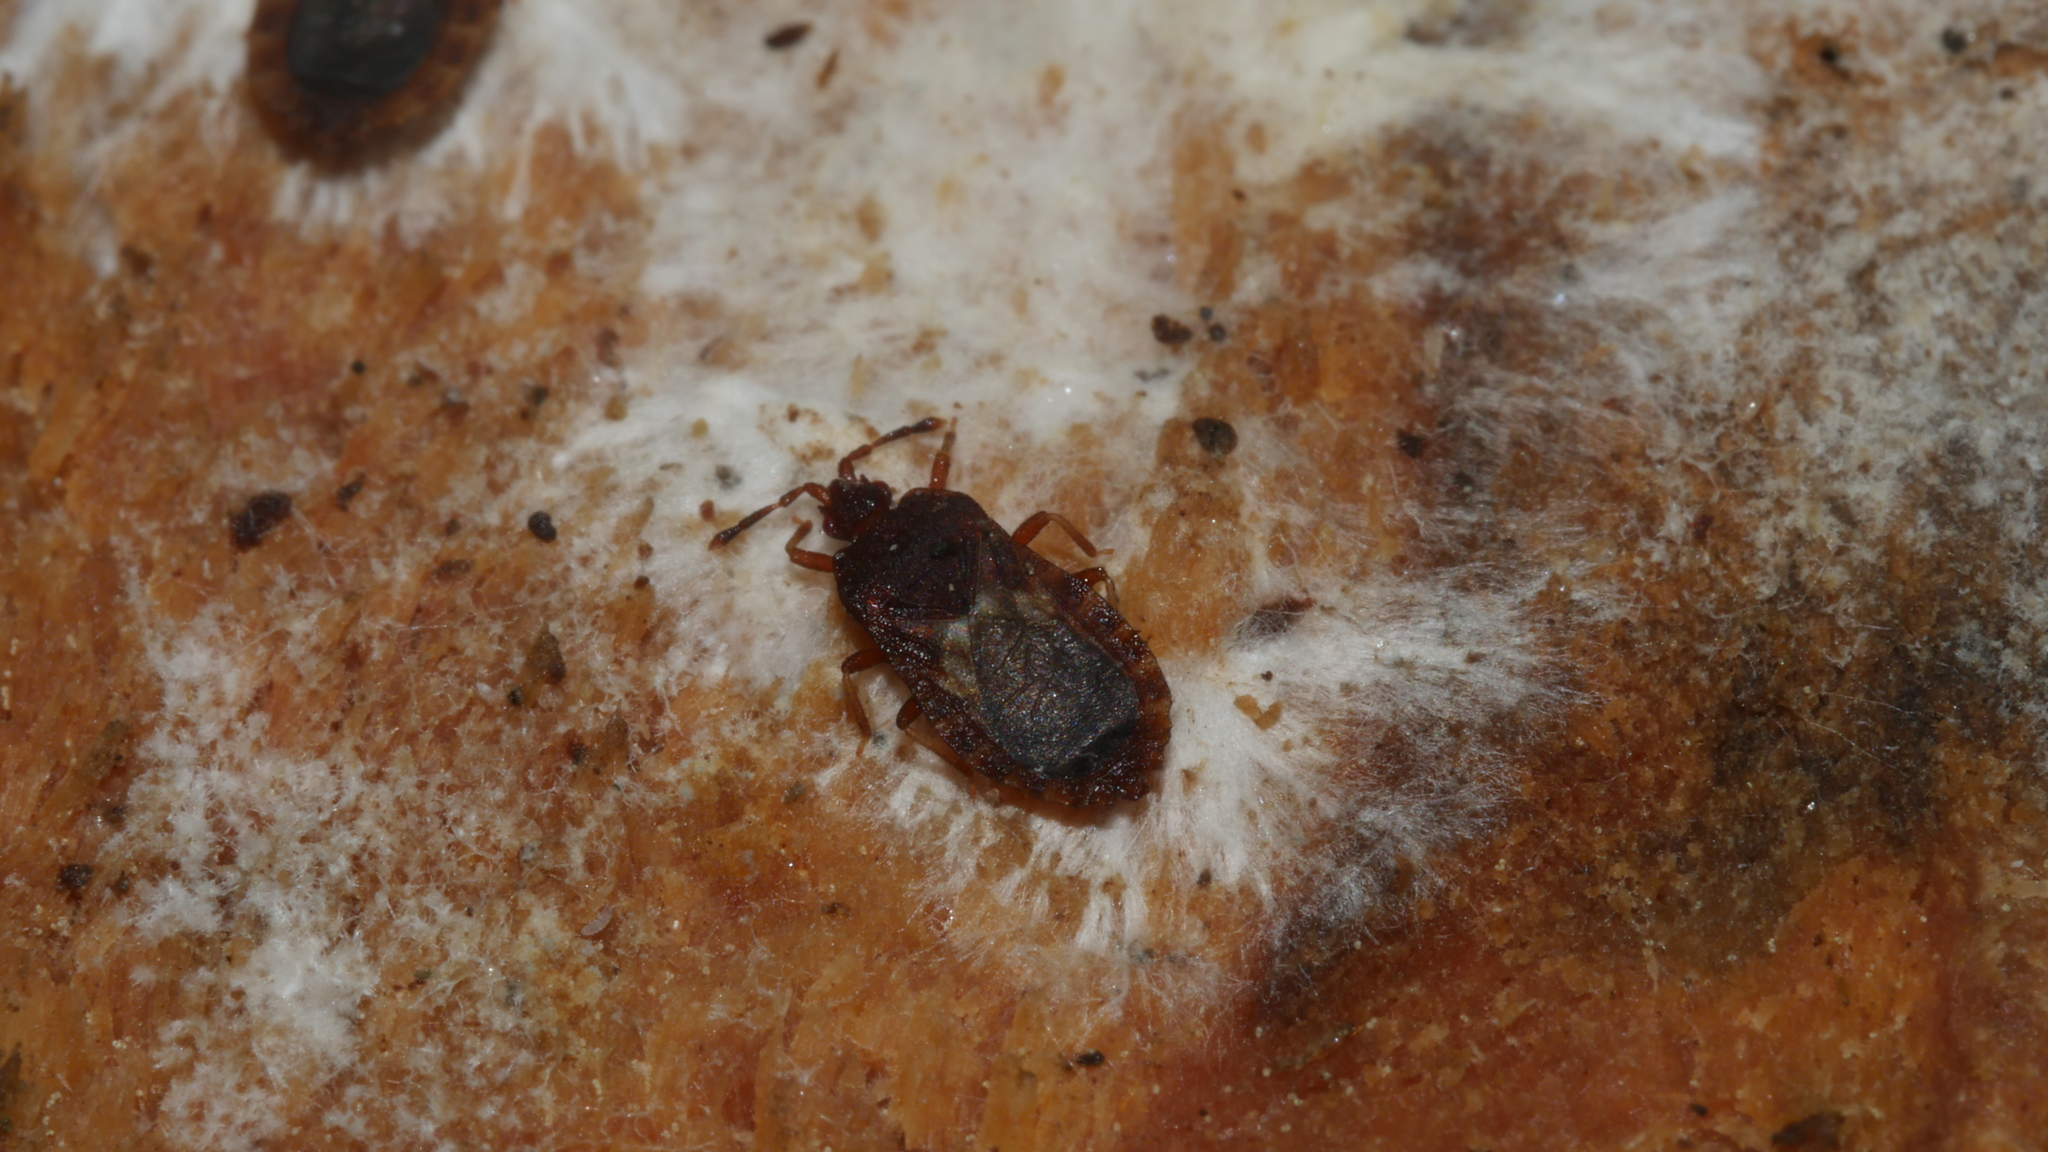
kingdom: Animalia
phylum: Arthropoda
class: Insecta
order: Hemiptera
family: Aradidae
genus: Notapictinus
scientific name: Notapictinus aurivillii
